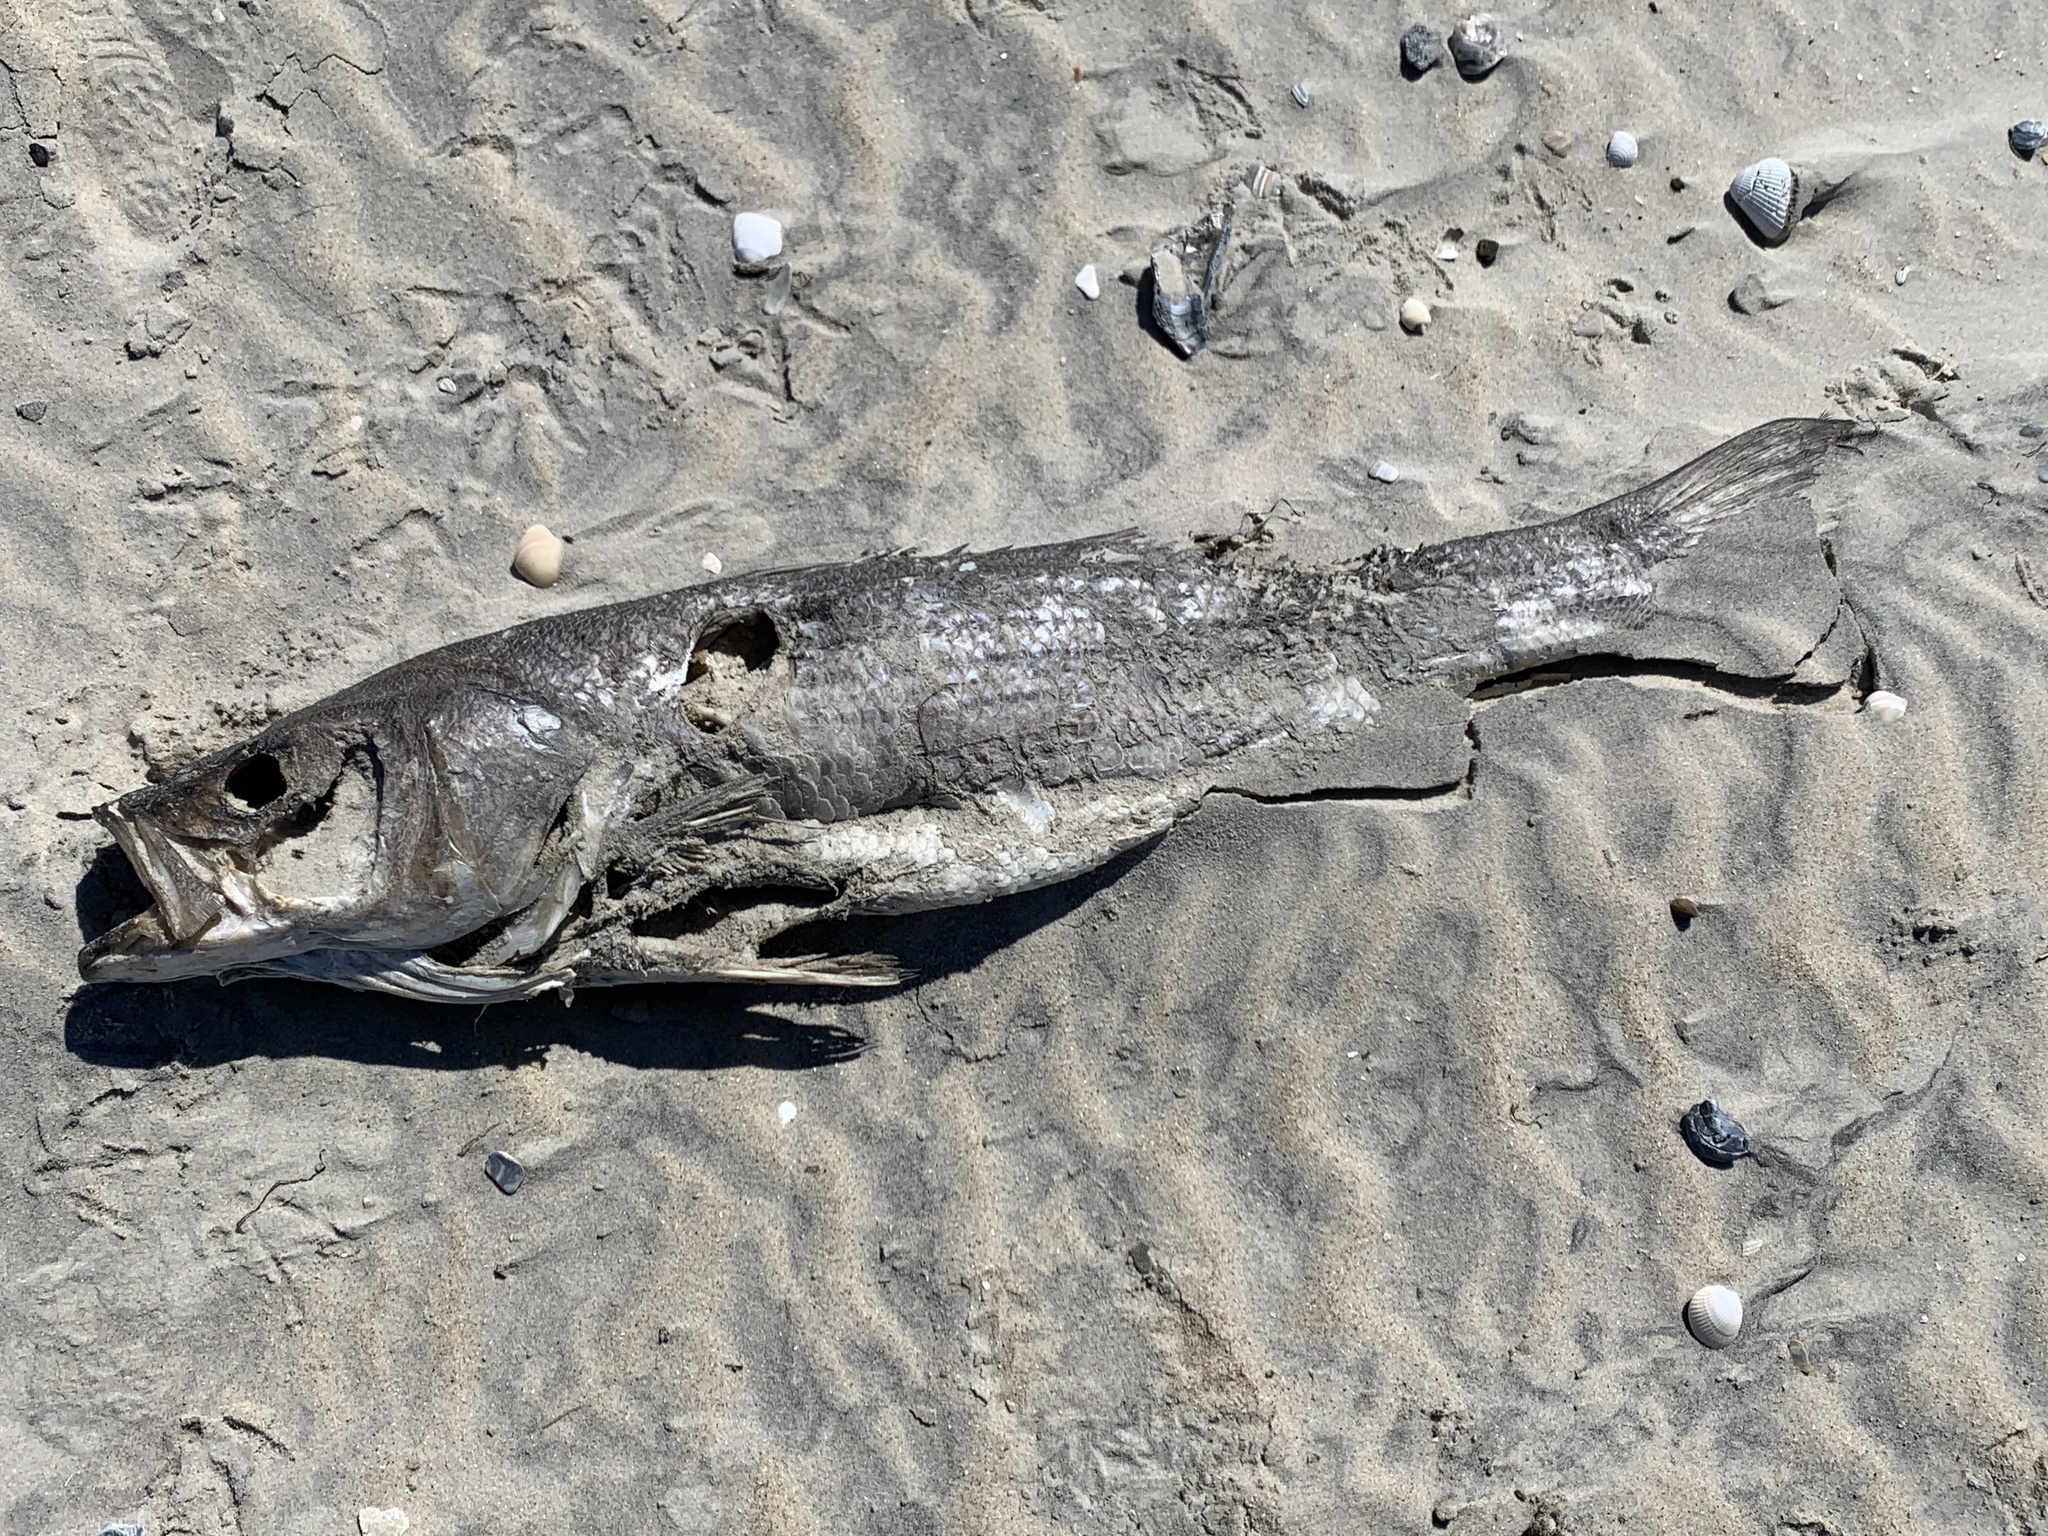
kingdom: Animalia
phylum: Chordata
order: Perciformes
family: Moronidae
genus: Morone
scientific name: Morone saxatilis
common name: Striped bass
